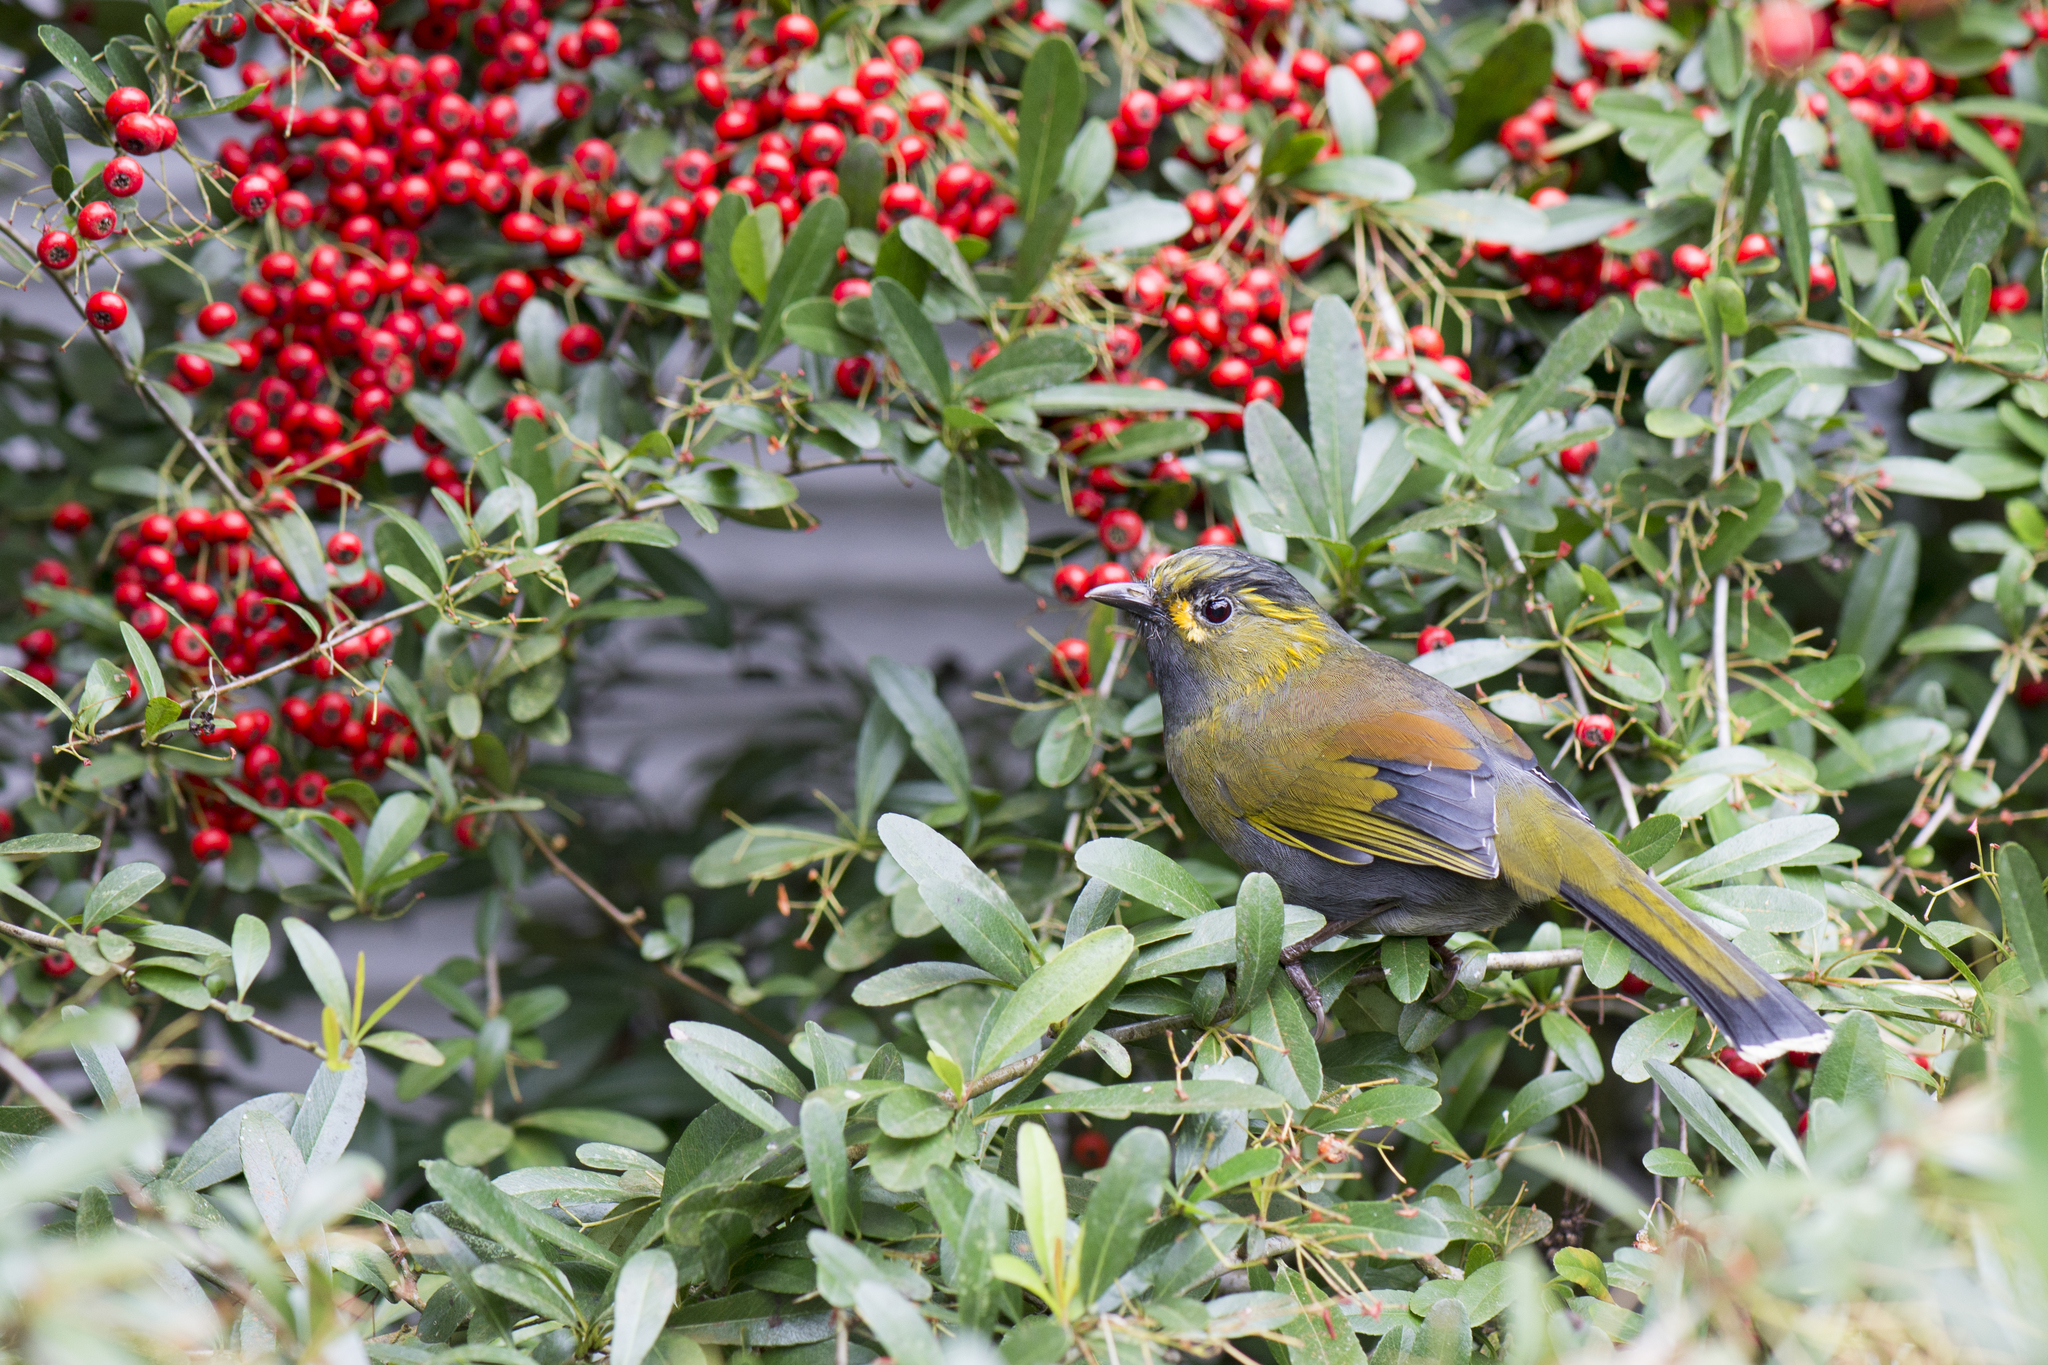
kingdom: Animalia
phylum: Chordata
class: Aves
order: Passeriformes
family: Leiothrichidae
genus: Liocichla
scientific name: Liocichla steerii
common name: Steere's liocichla
